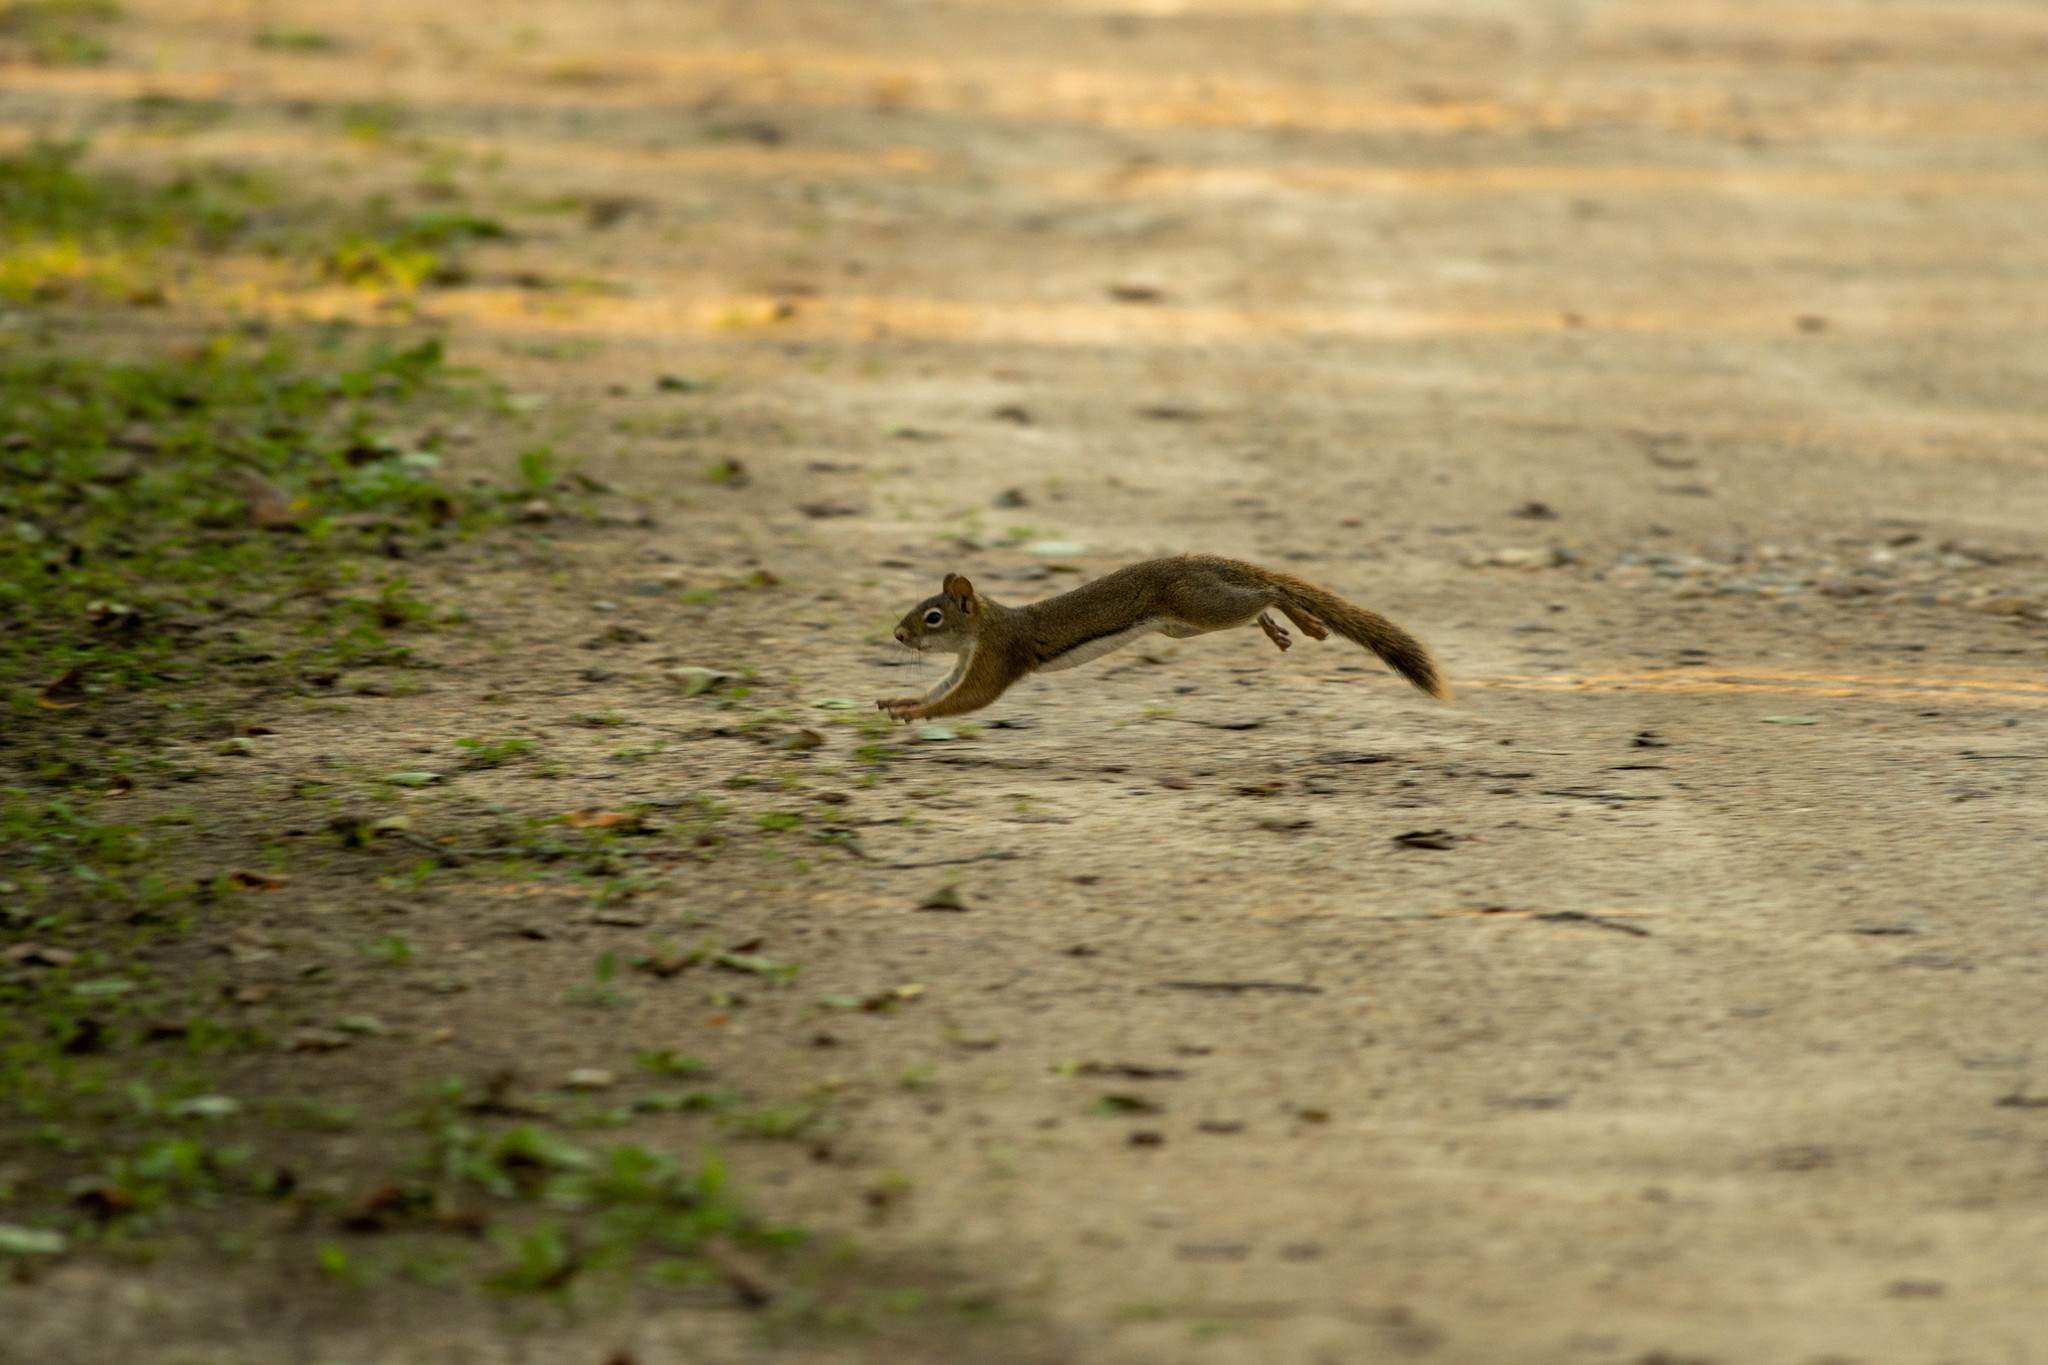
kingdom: Animalia
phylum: Chordata
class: Mammalia
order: Rodentia
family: Sciuridae
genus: Tamiasciurus
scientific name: Tamiasciurus hudsonicus
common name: Red squirrel
